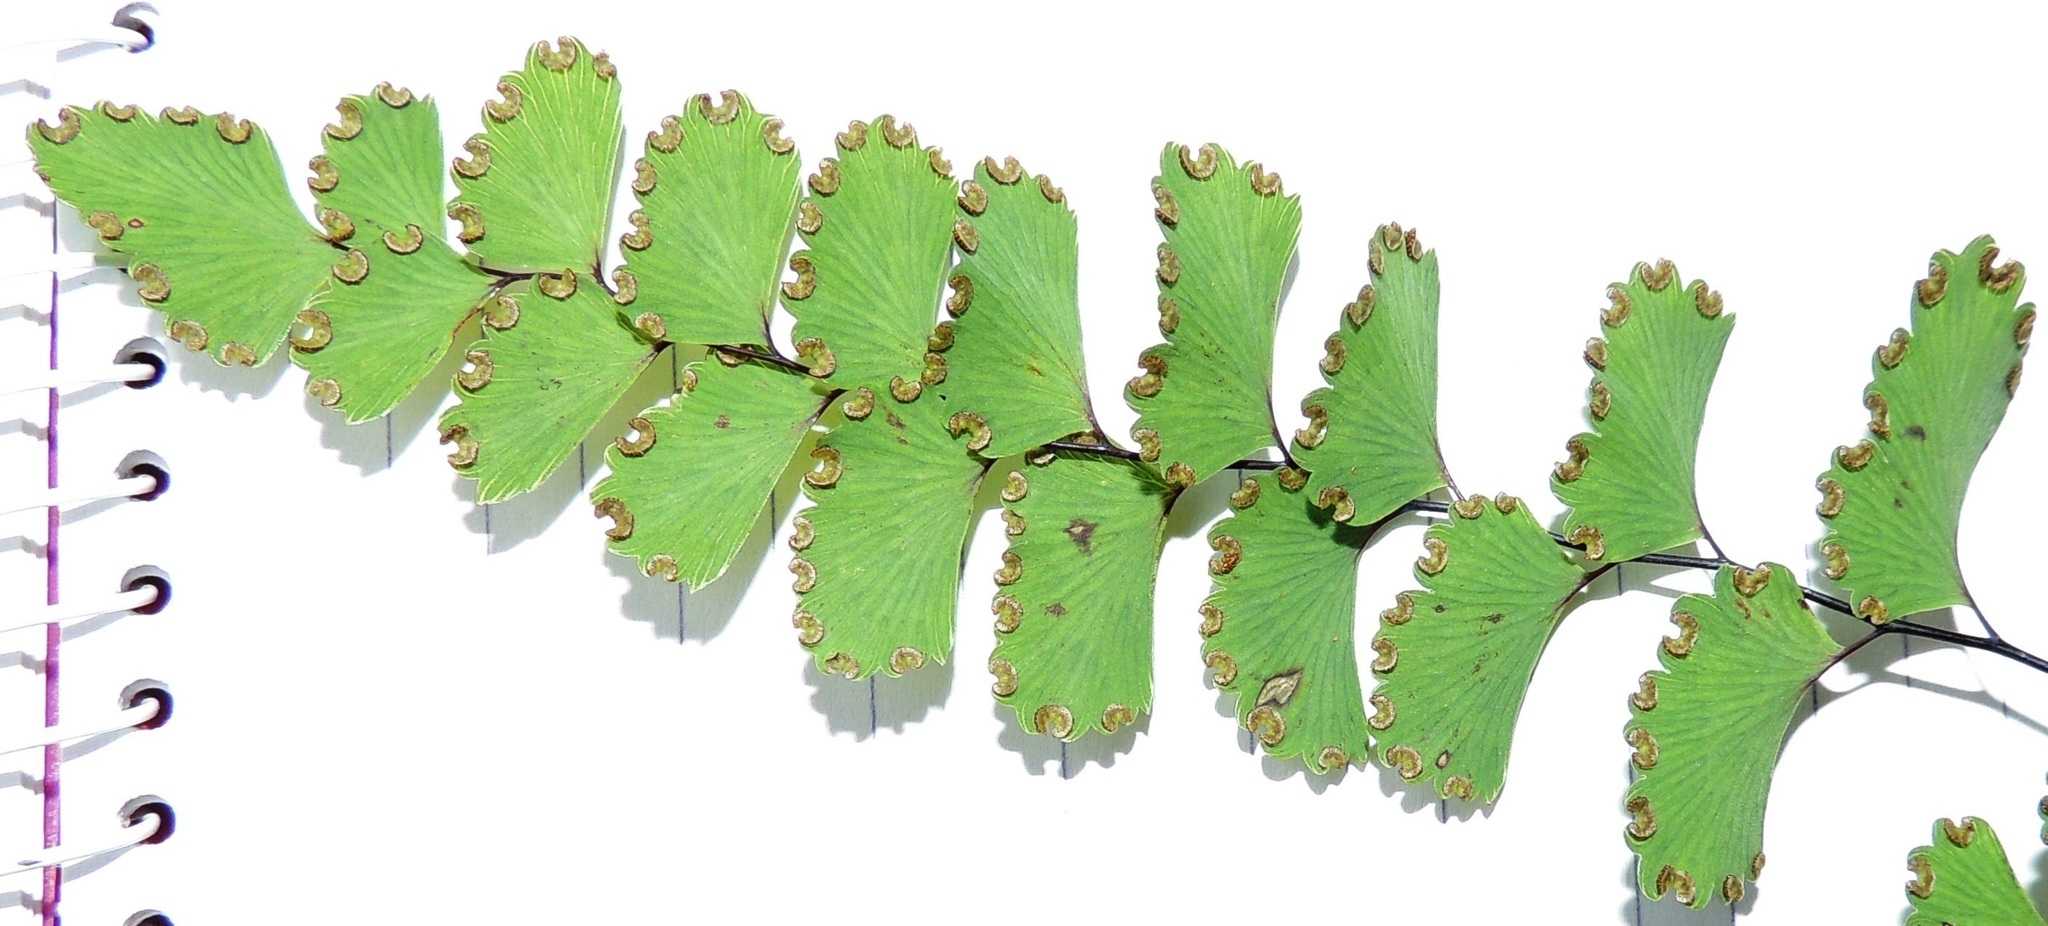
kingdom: Plantae
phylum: Tracheophyta
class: Polypodiopsida
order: Polypodiales
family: Pteridaceae
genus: Adiantum
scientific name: Adiantum cunninghamii
